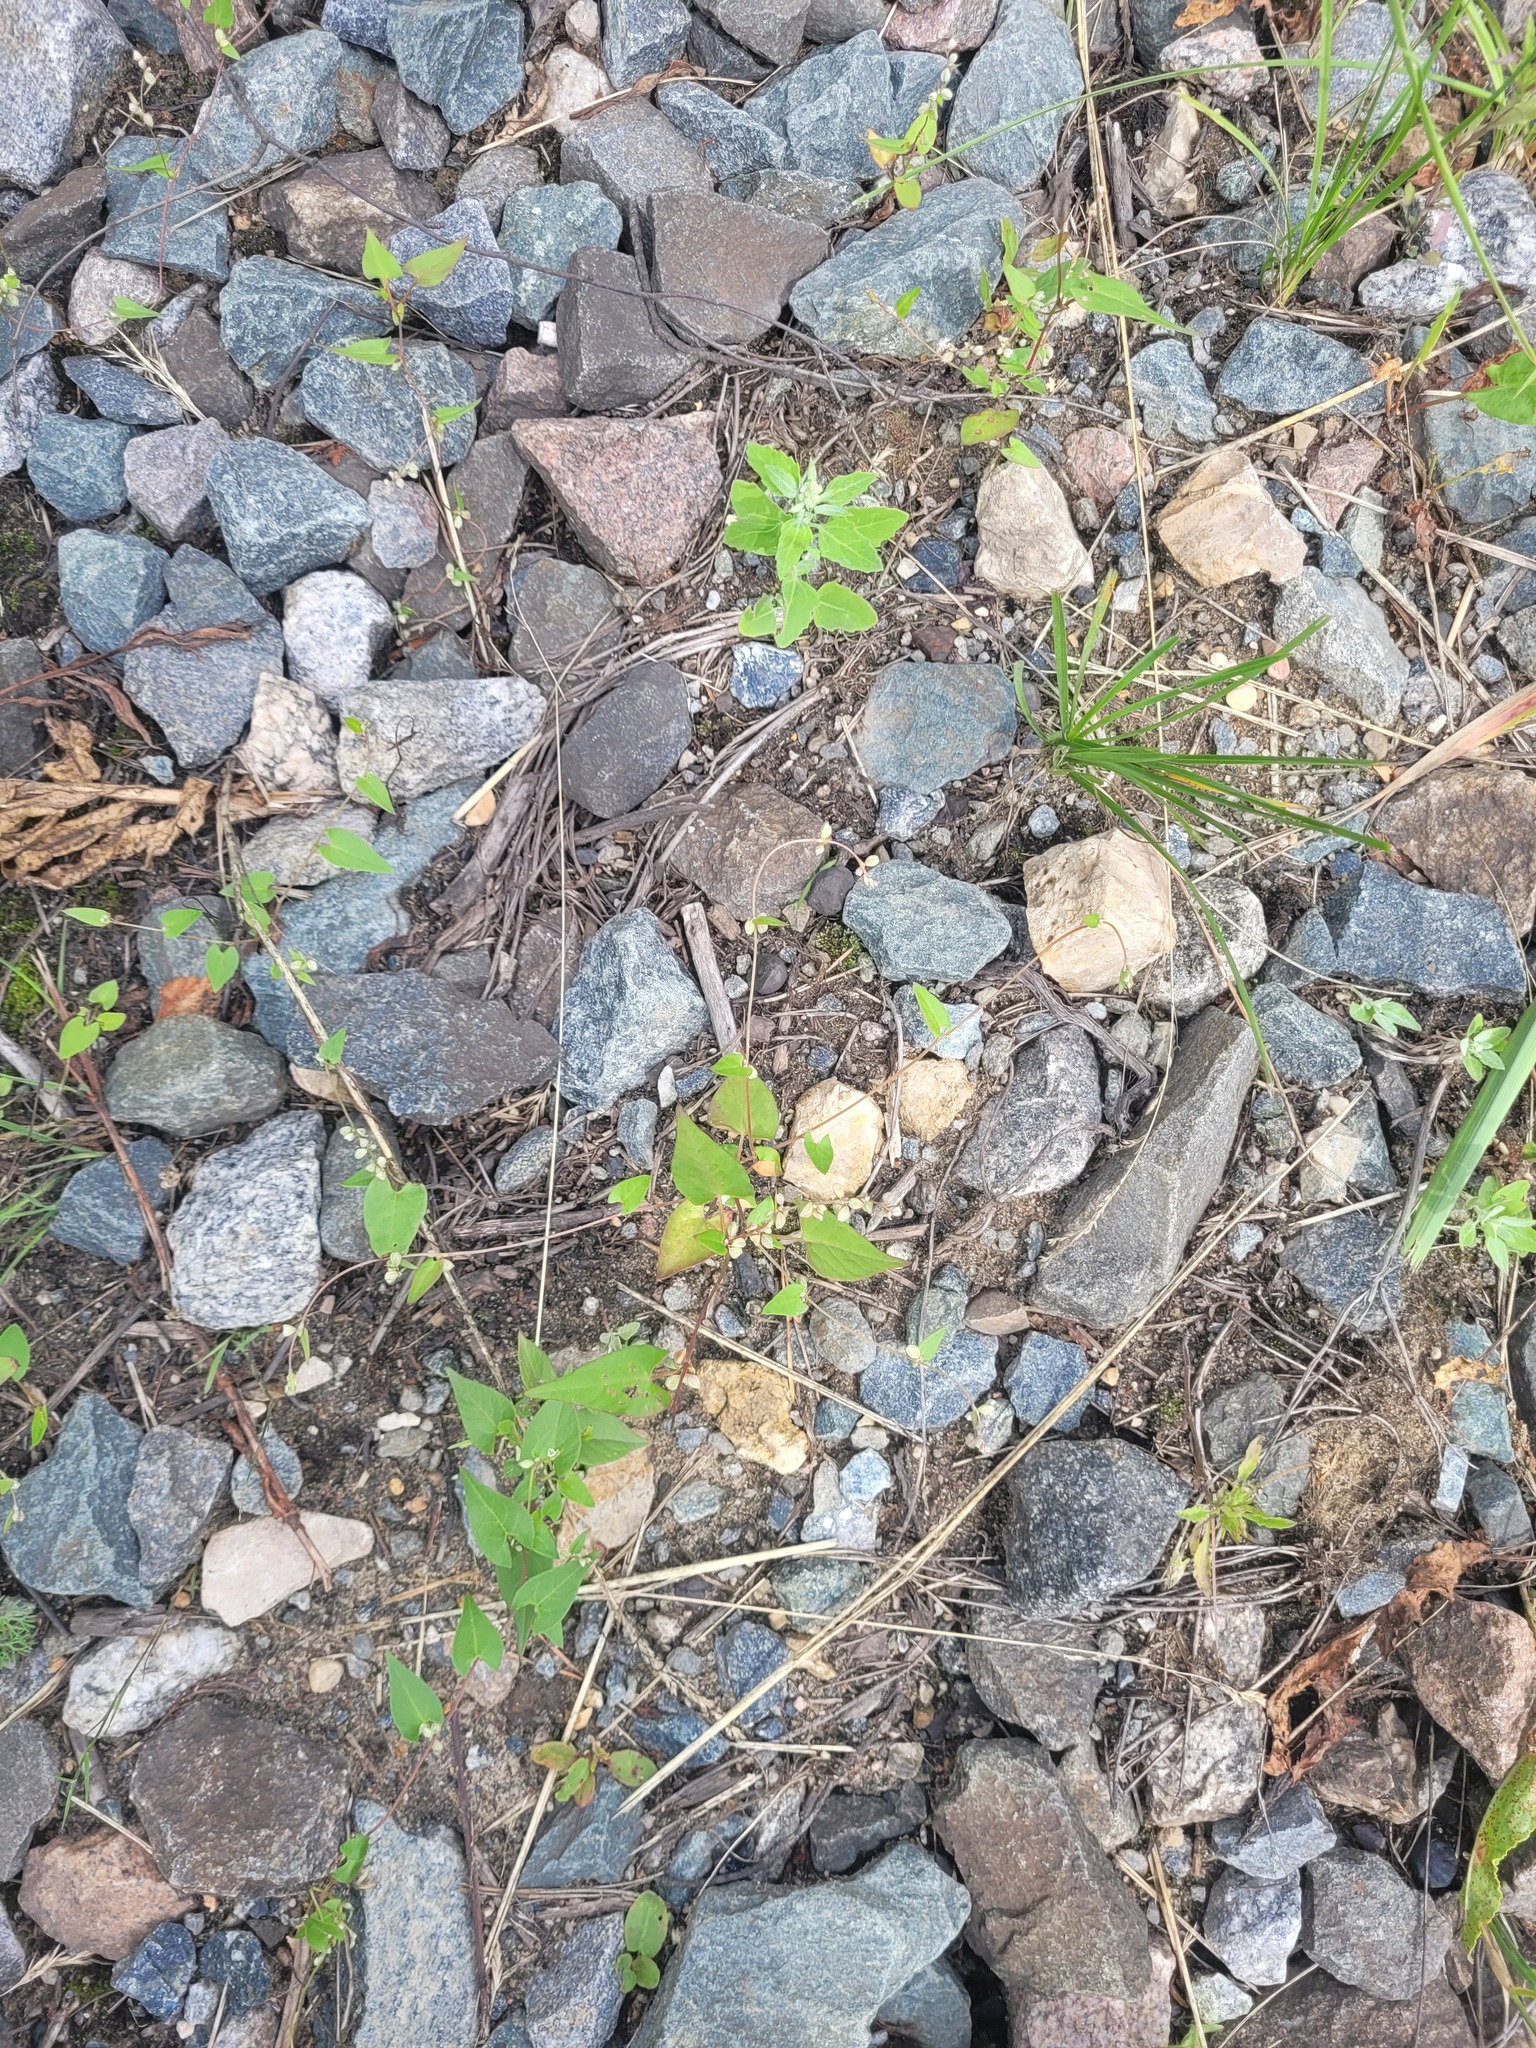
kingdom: Plantae
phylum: Tracheophyta
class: Magnoliopsida
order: Caryophyllales
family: Polygonaceae
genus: Fallopia
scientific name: Fallopia convolvulus
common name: Black bindweed
